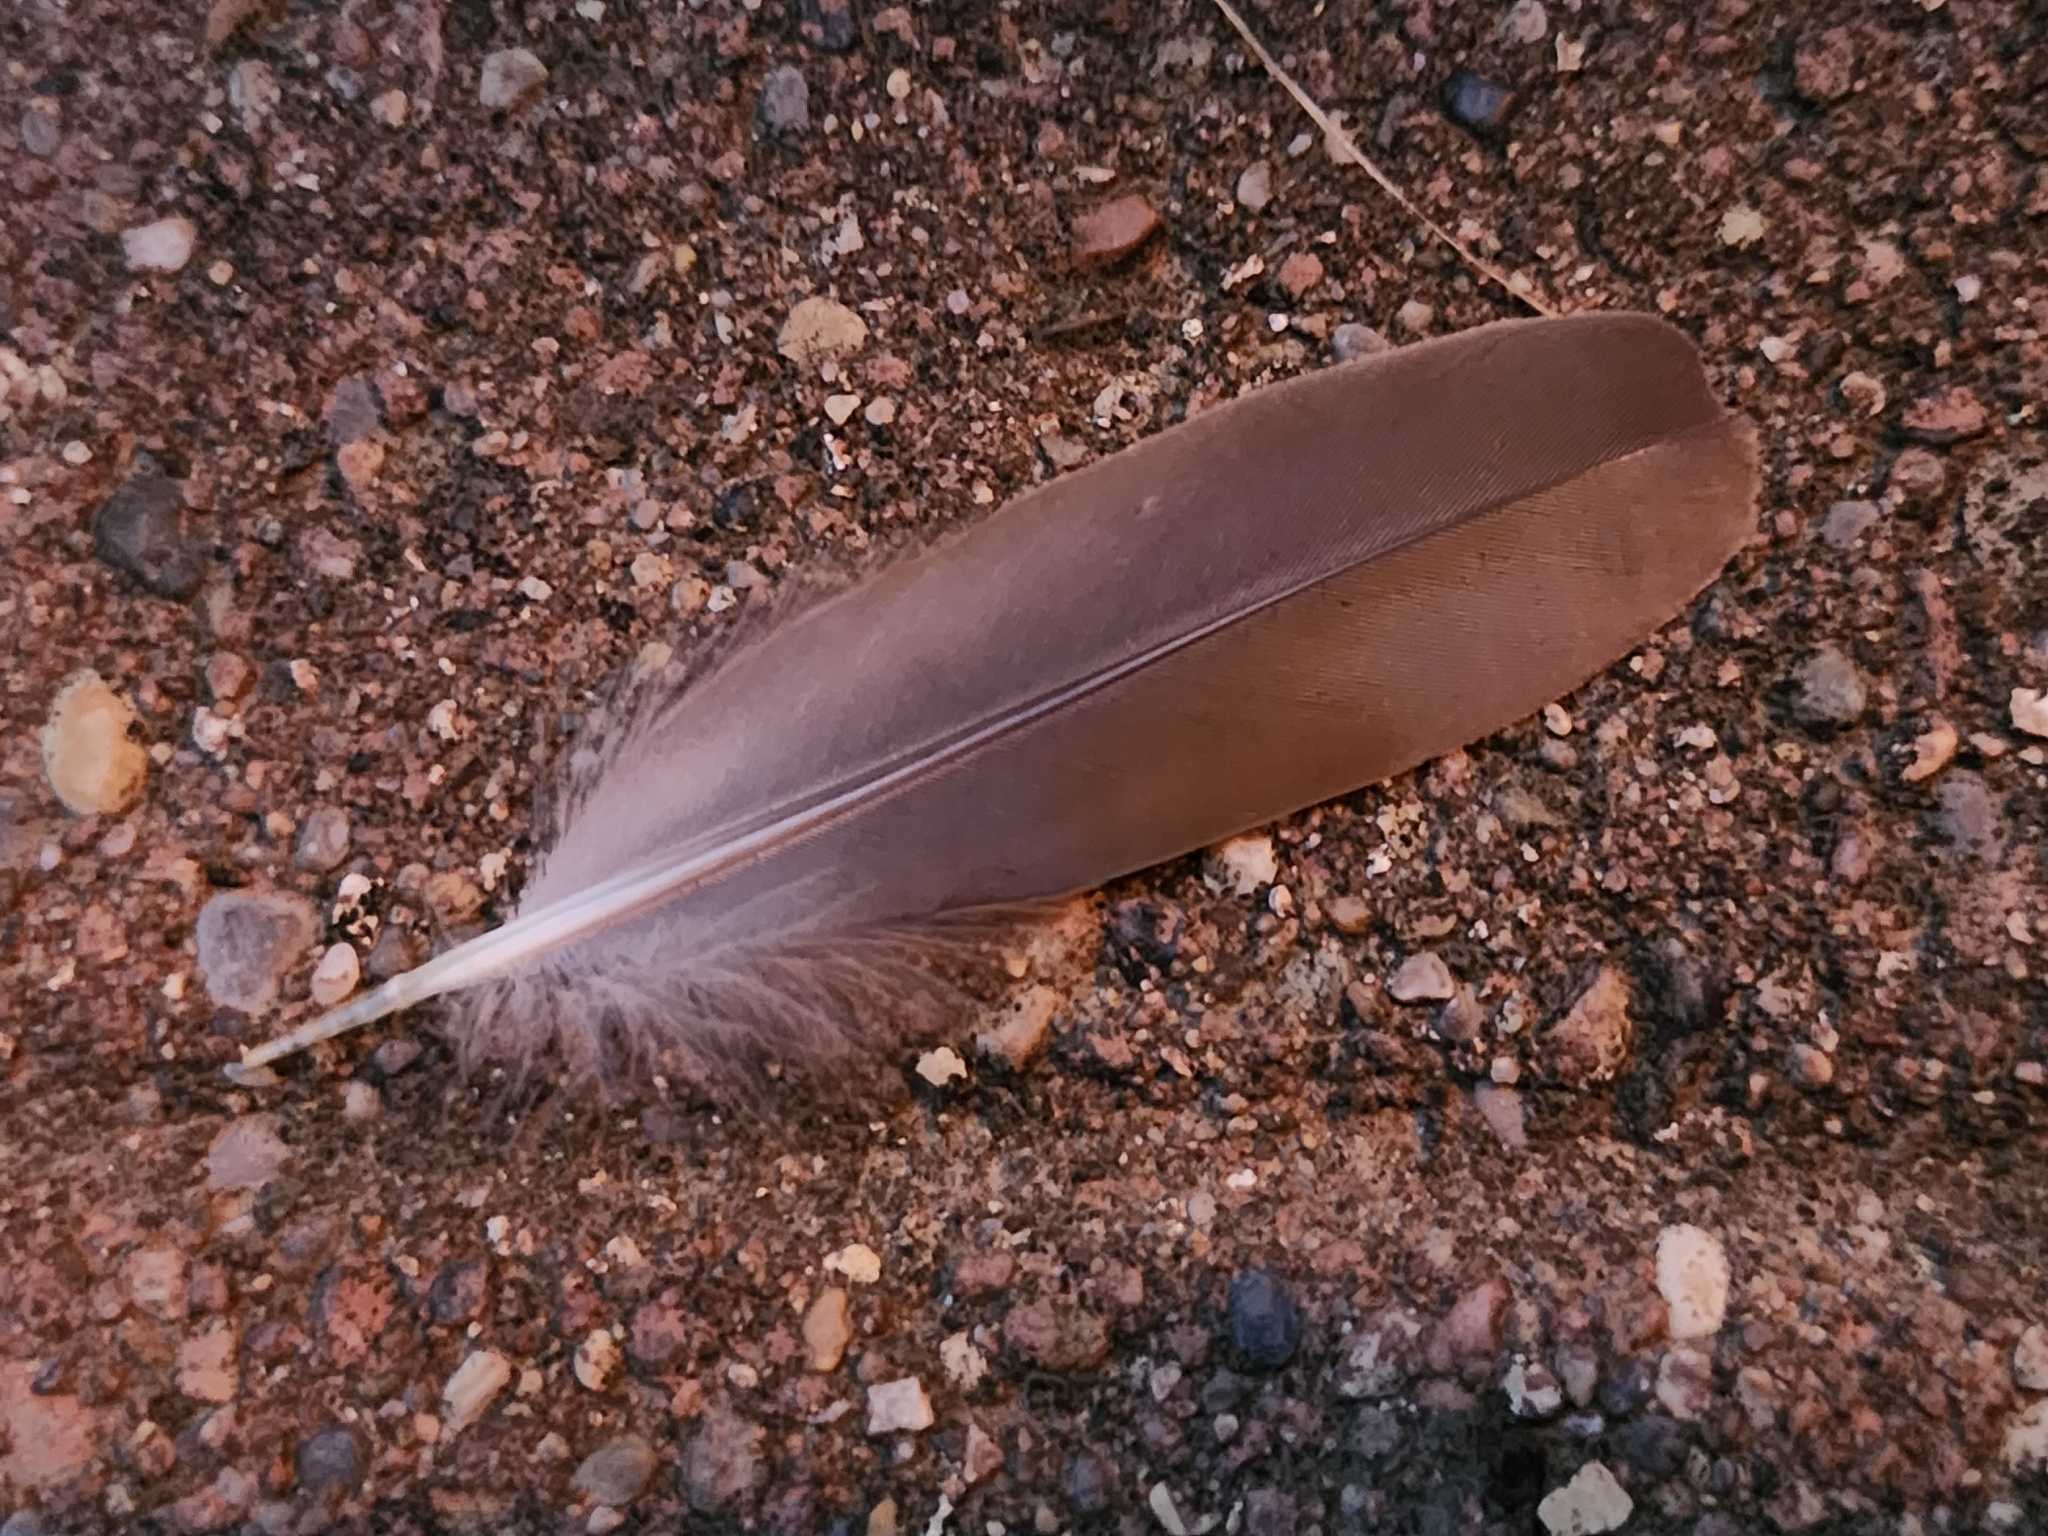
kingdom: Animalia
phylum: Chordata
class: Aves
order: Columbiformes
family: Columbidae
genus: Zenaida
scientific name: Zenaida macroura
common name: Mourning dove
